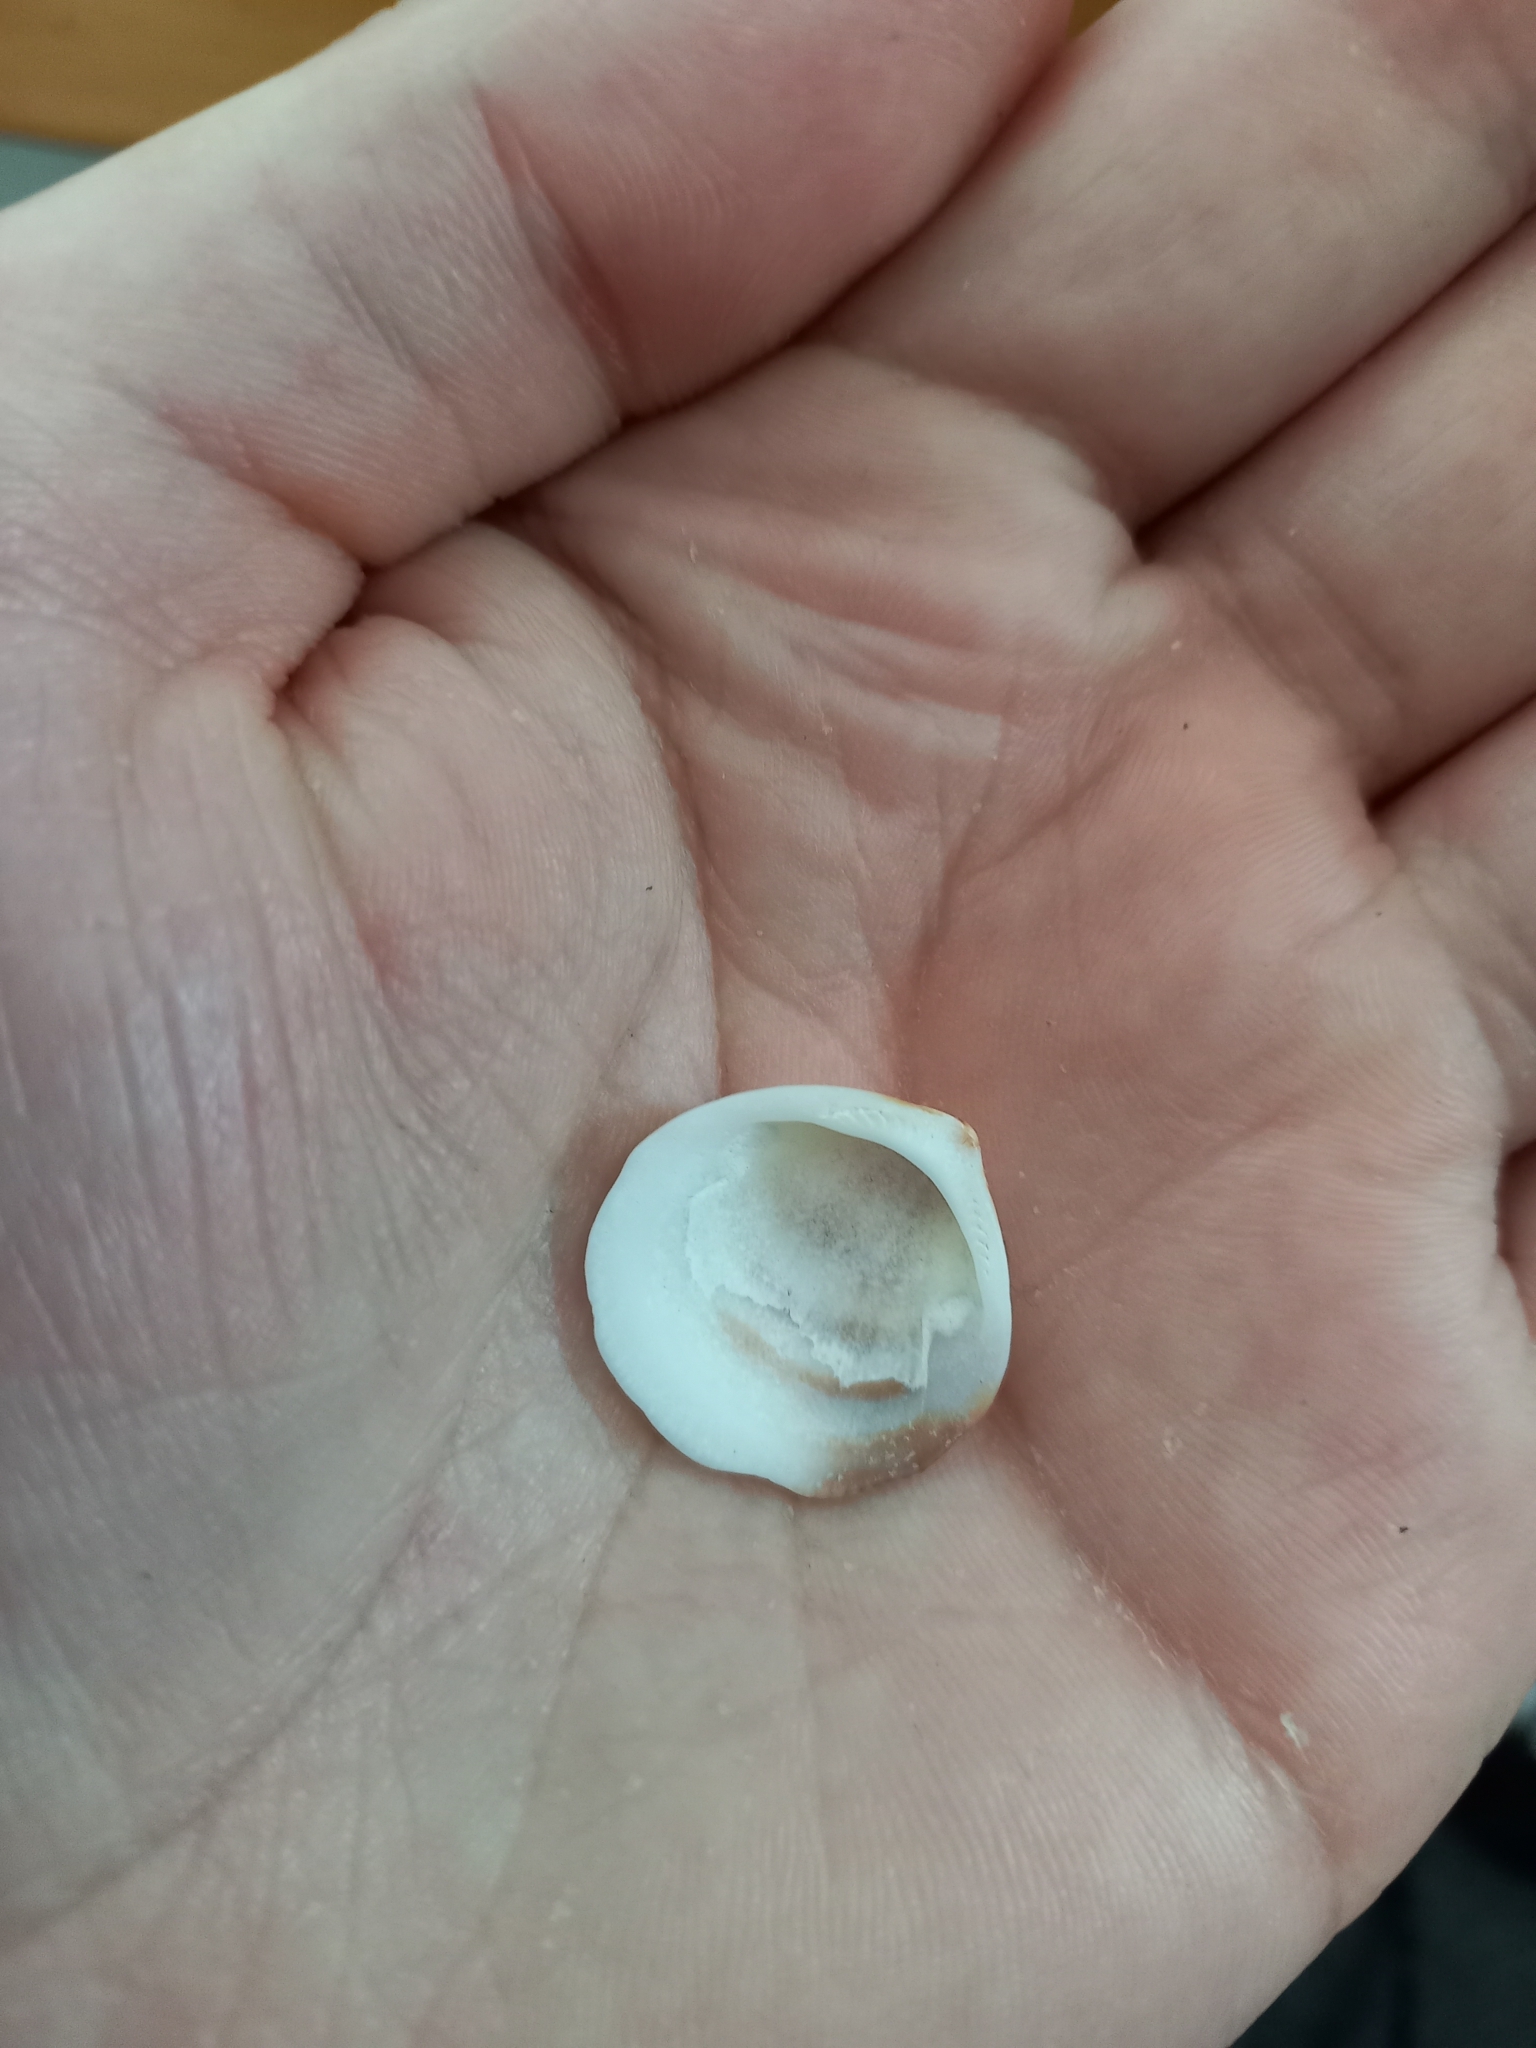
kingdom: Animalia
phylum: Mollusca
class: Bivalvia
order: Arcida
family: Glycymerididae
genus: Glycymeris
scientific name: Glycymeris modesta
